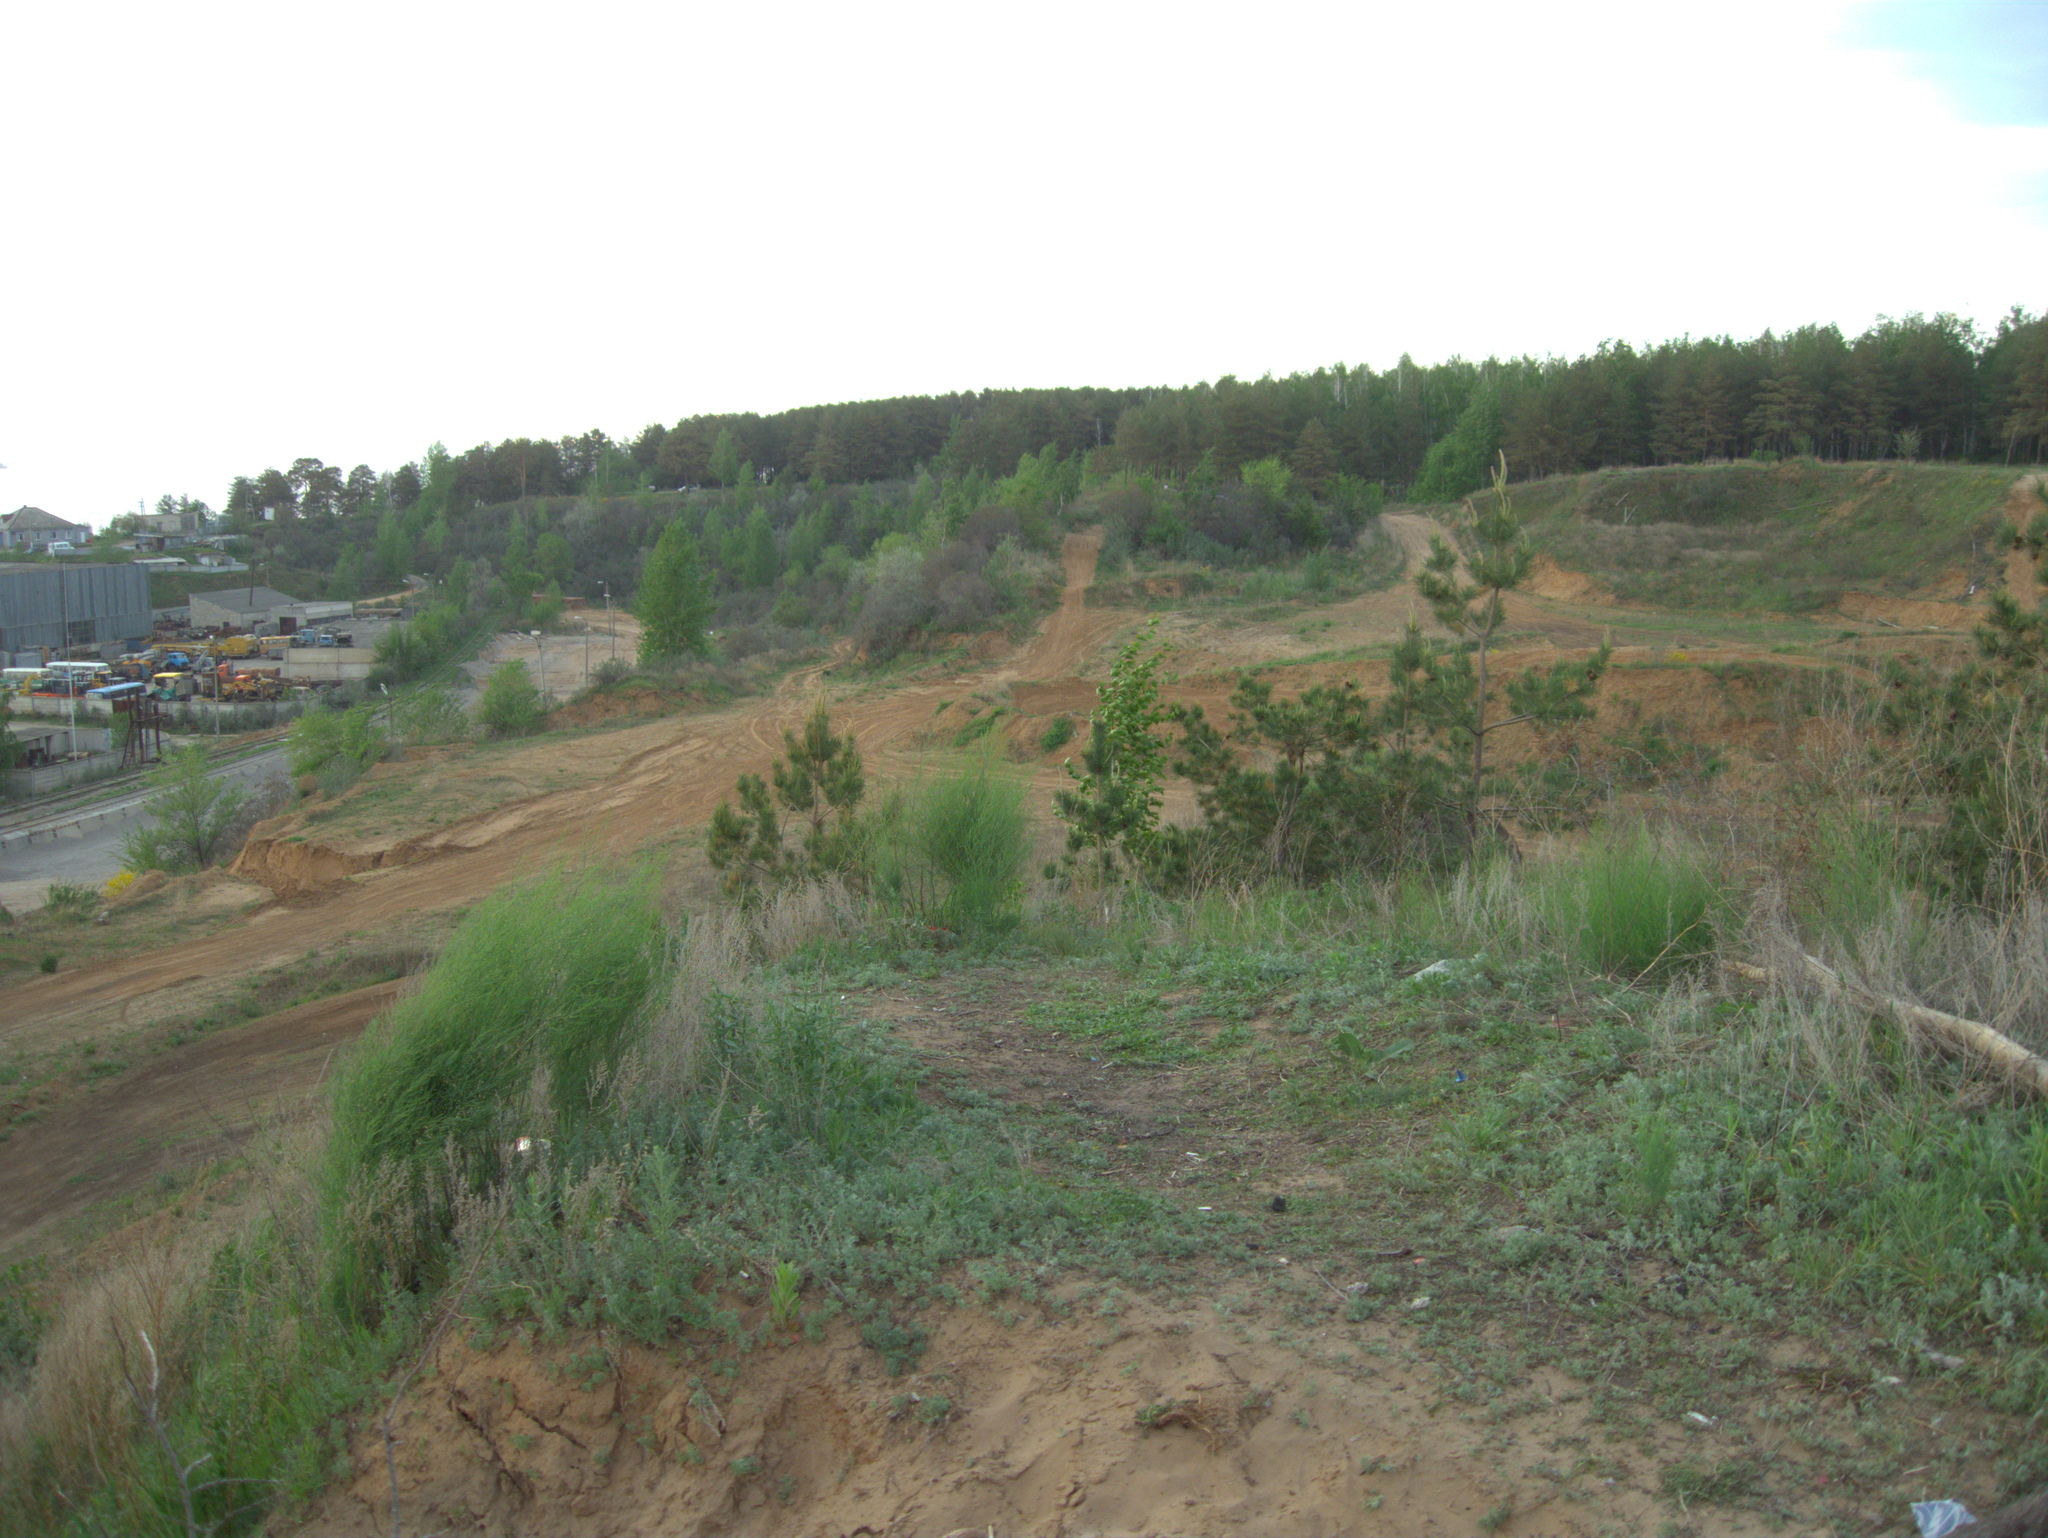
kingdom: Plantae
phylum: Tracheophyta
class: Pinopsida
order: Pinales
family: Pinaceae
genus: Pinus
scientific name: Pinus sylvestris
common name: Scots pine
